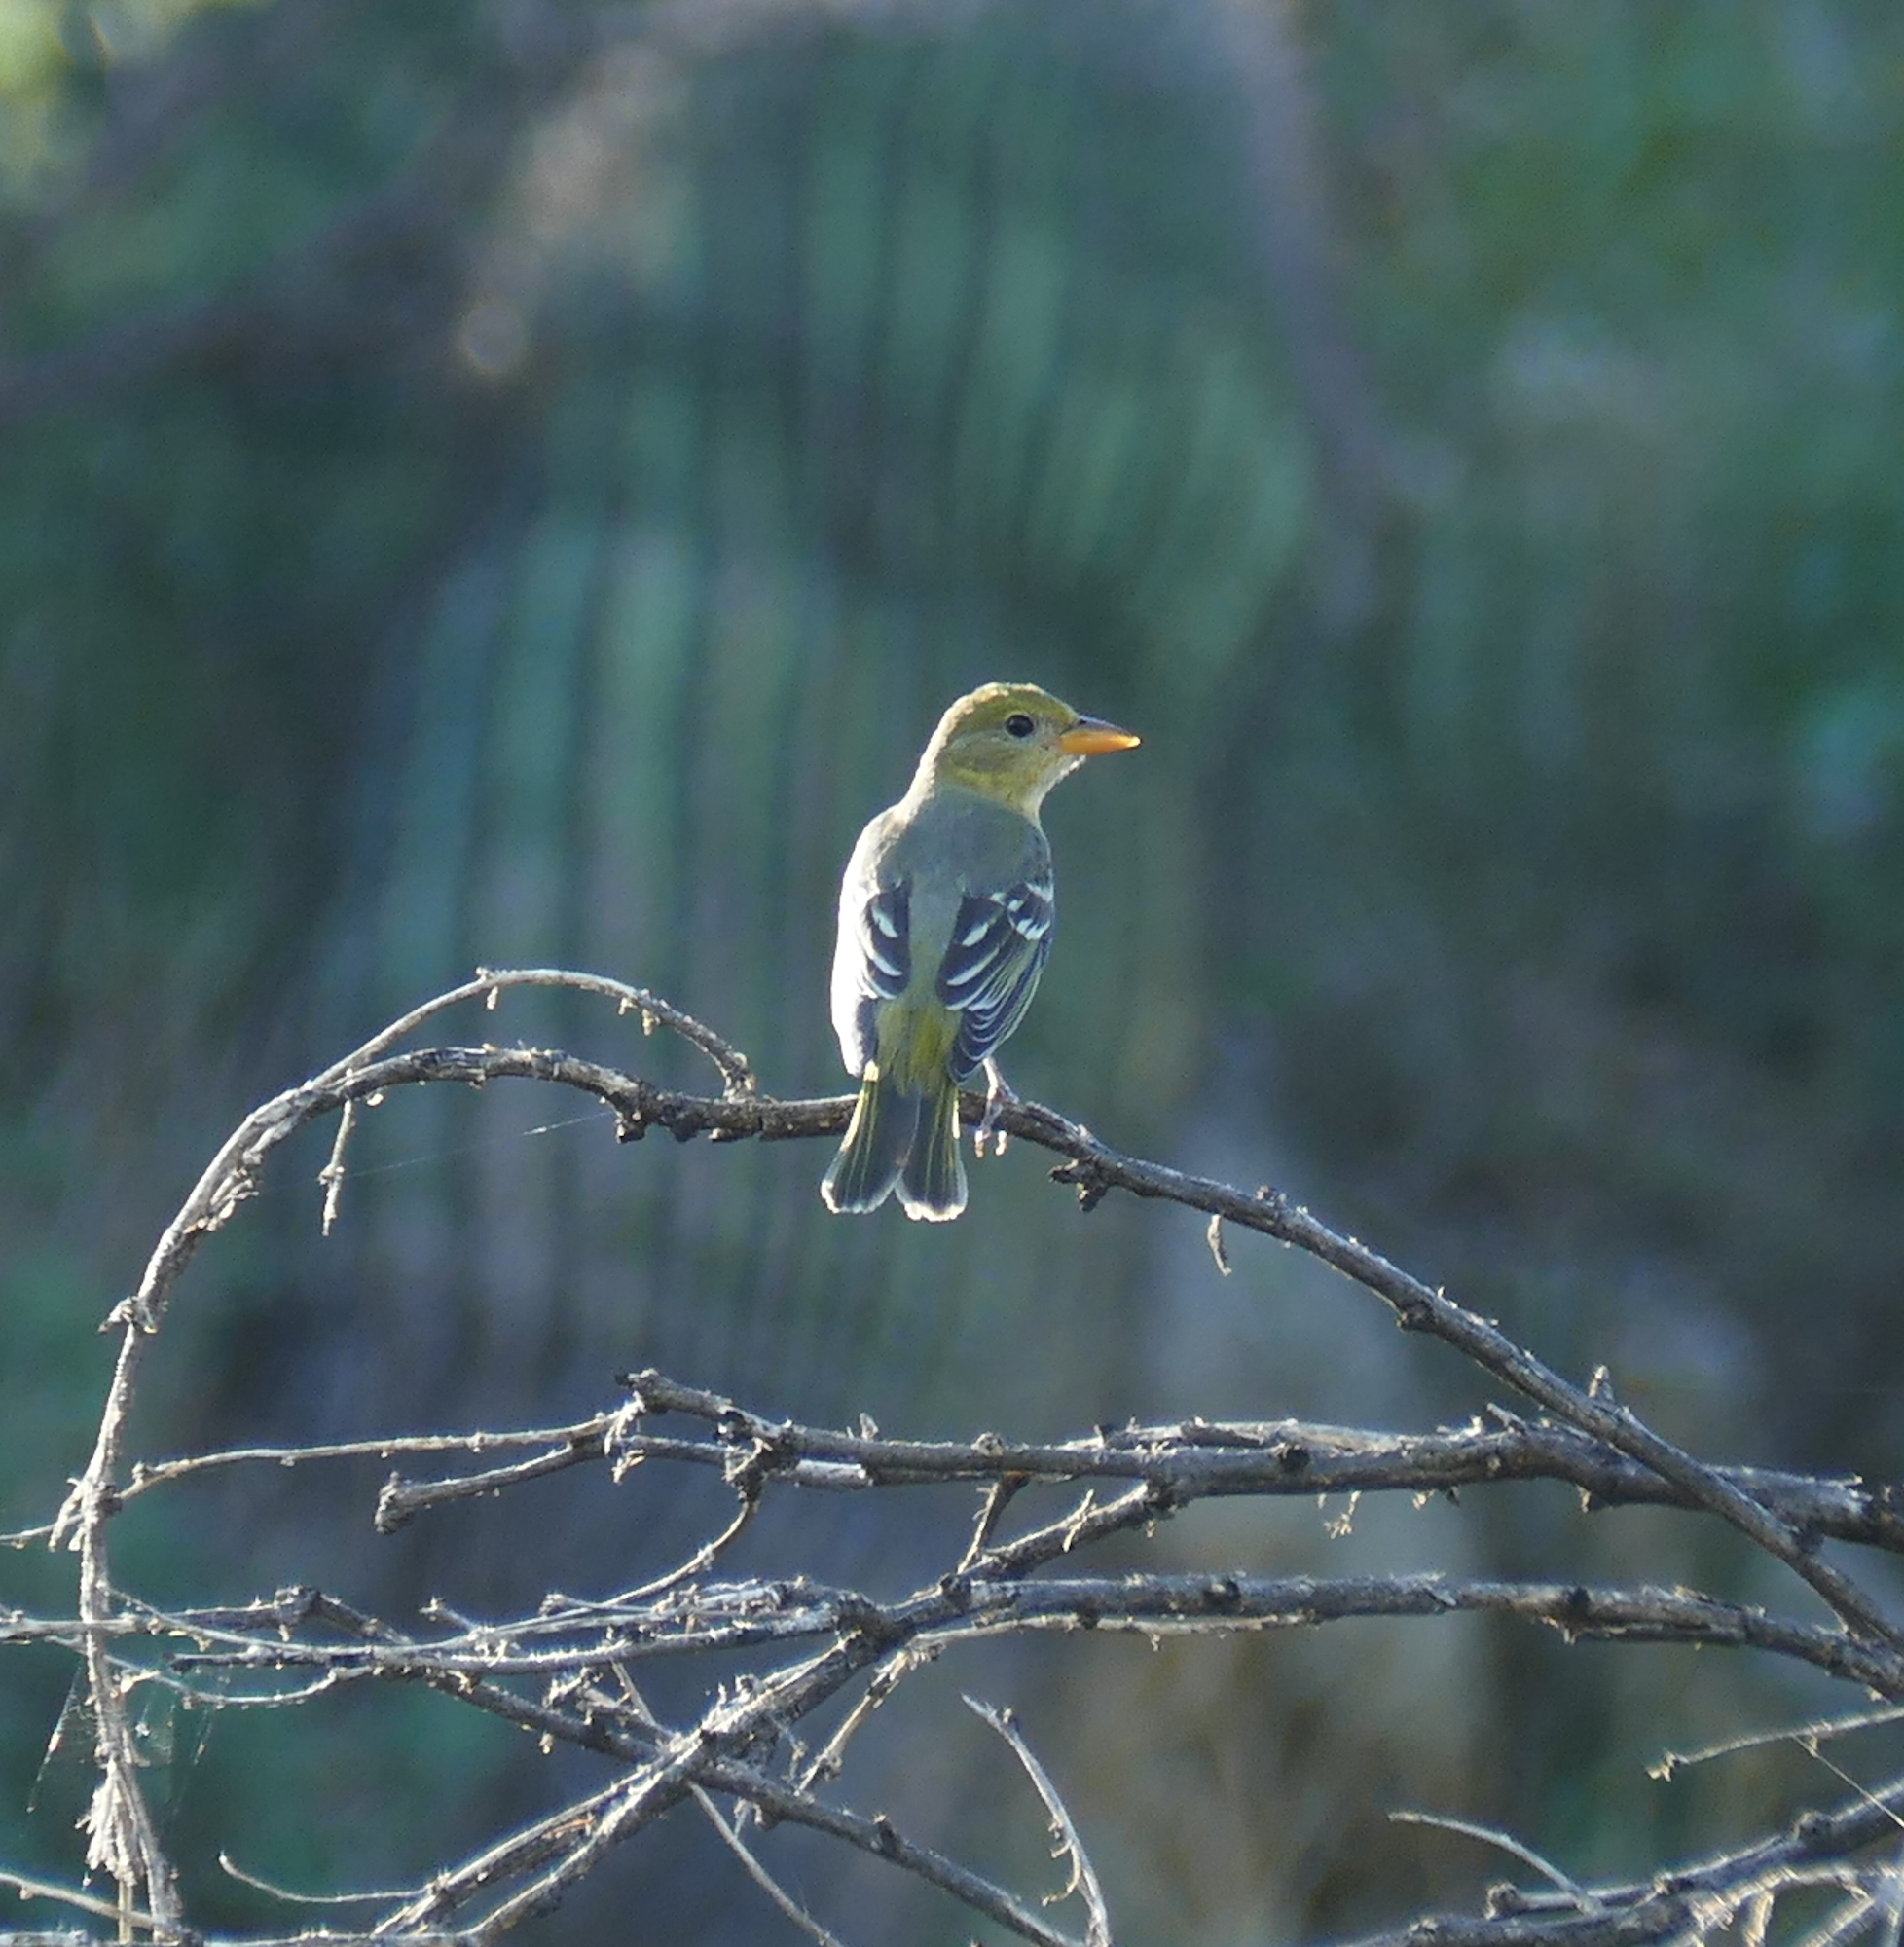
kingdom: Animalia
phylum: Chordata
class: Aves
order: Passeriformes
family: Cardinalidae
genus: Piranga
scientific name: Piranga ludoviciana
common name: Western tanager
